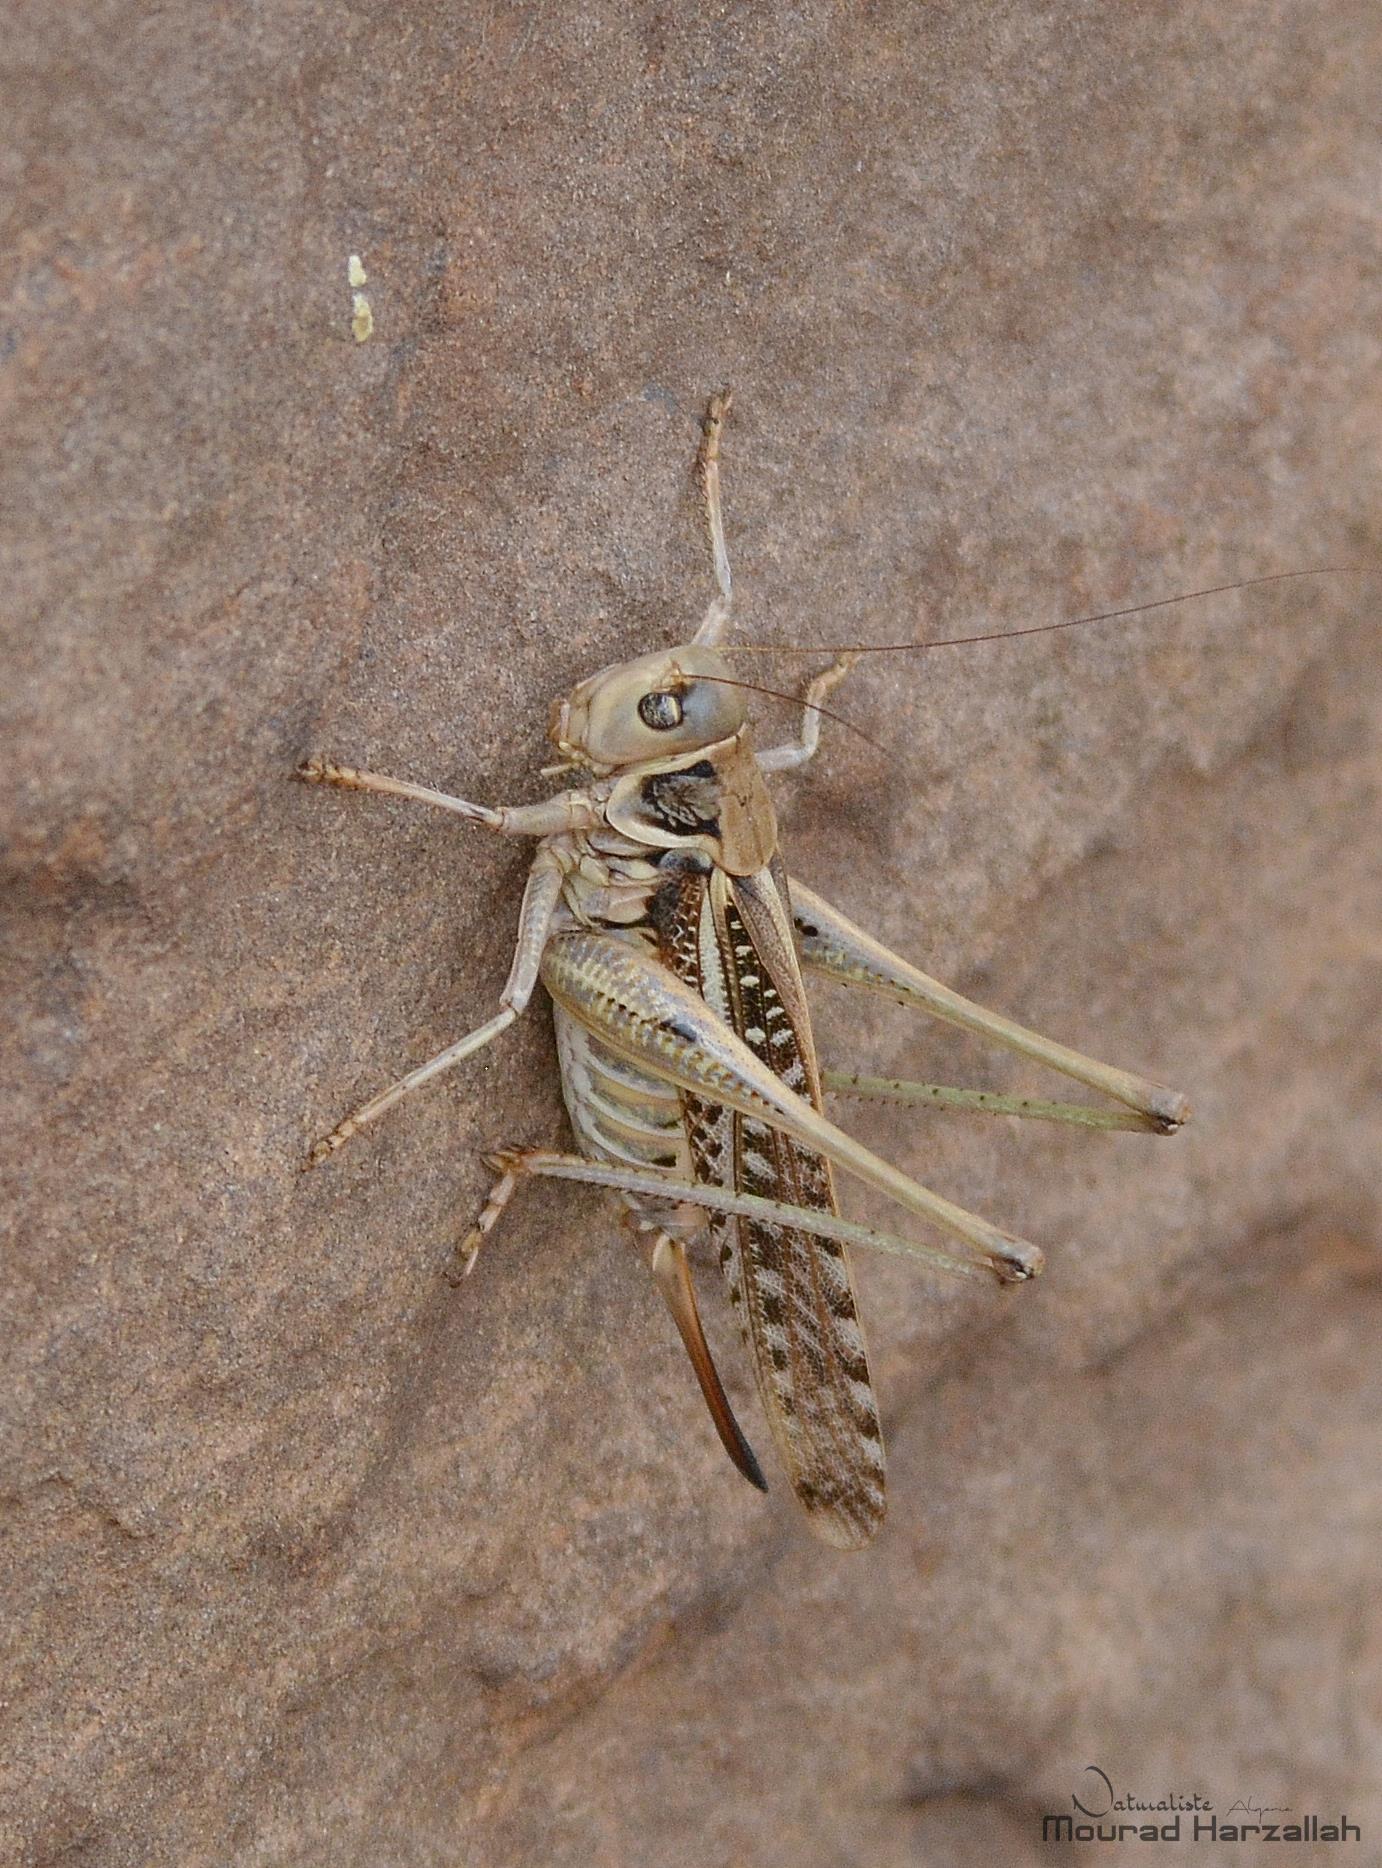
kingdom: Animalia
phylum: Arthropoda
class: Insecta
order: Orthoptera
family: Tettigoniidae
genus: Decticus
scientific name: Decticus albifrons
